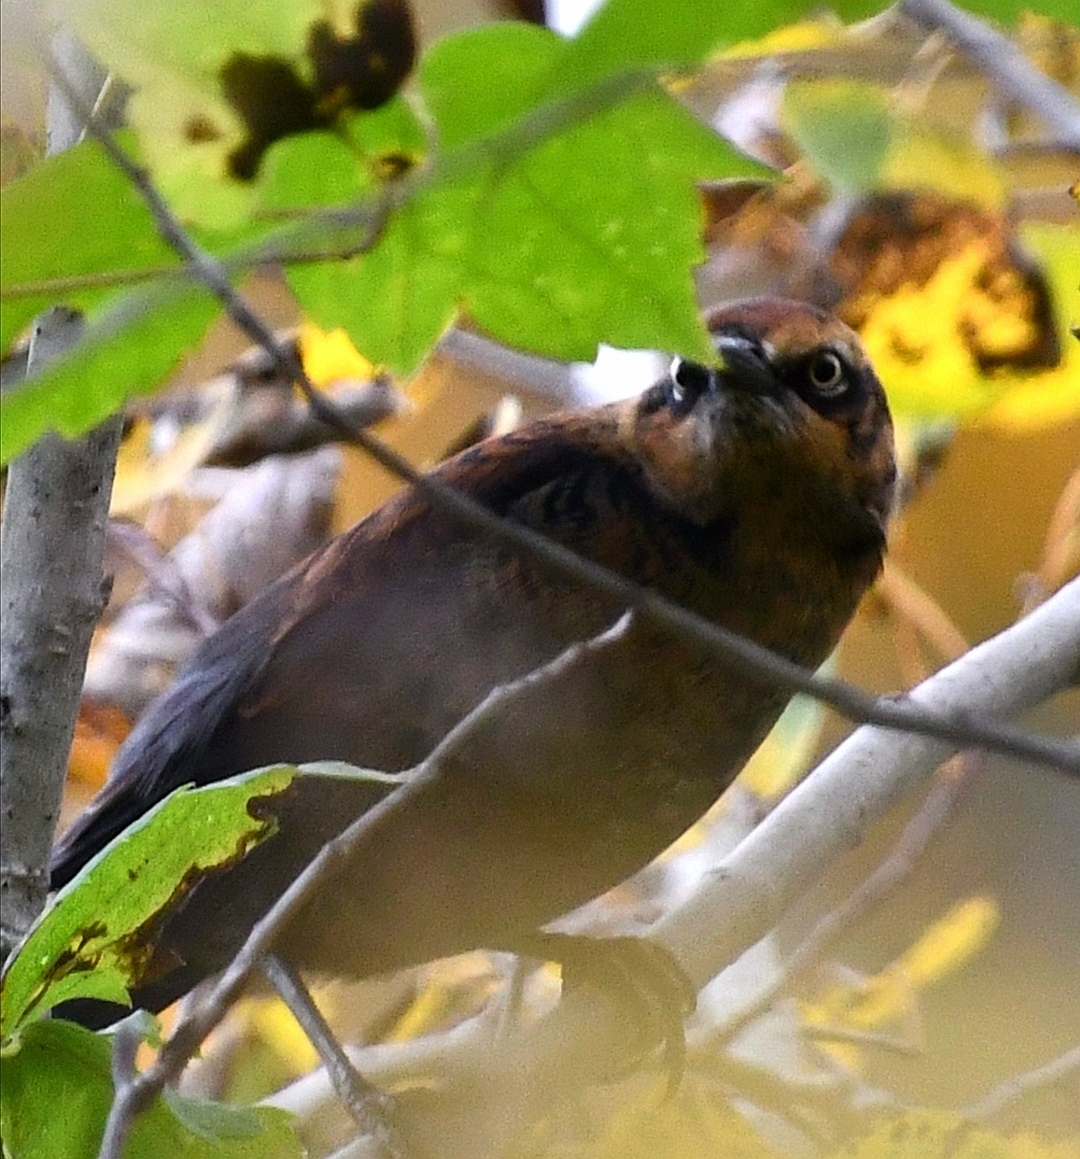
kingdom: Animalia
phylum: Chordata
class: Aves
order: Passeriformes
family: Icteridae
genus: Euphagus
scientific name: Euphagus carolinus
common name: Rusty blackbird
